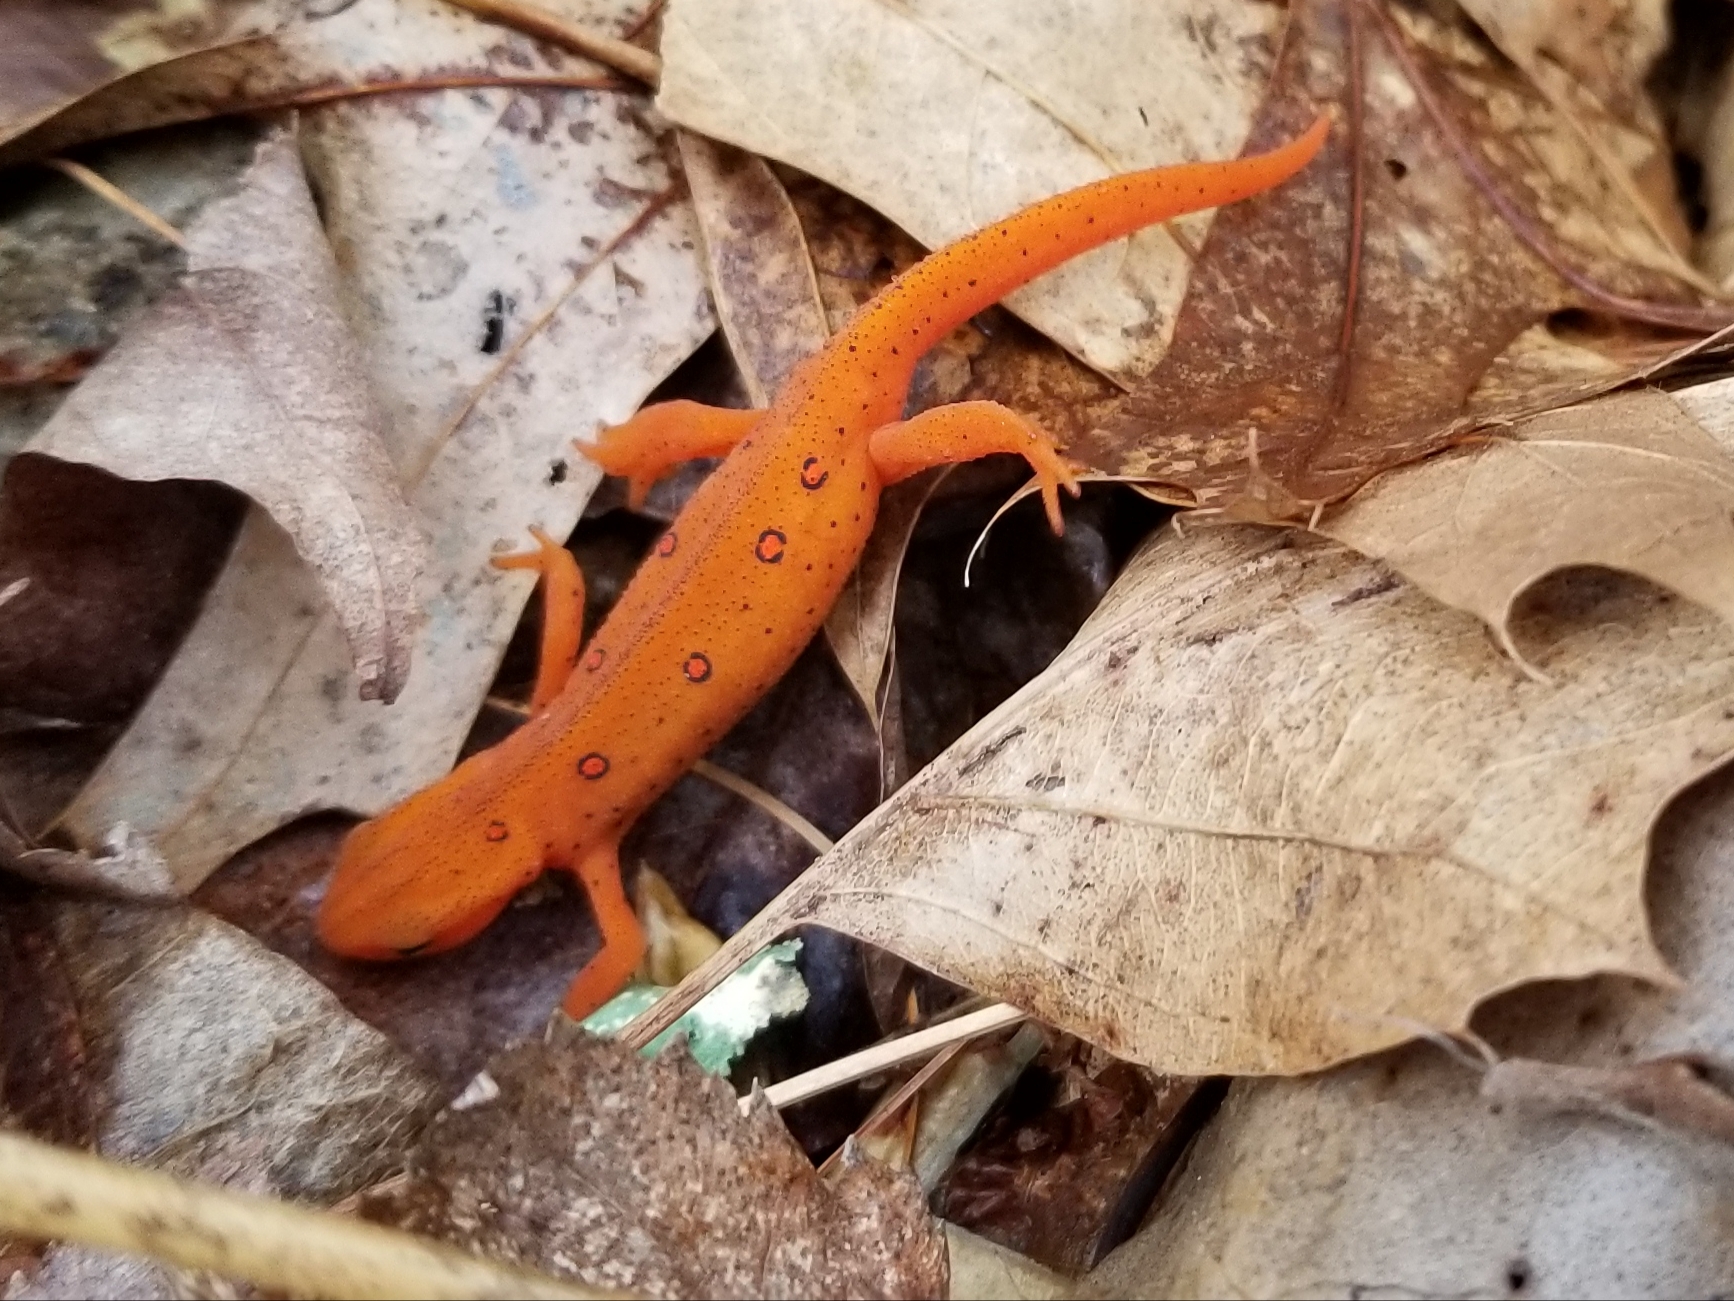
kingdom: Animalia
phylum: Chordata
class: Amphibia
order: Caudata
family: Salamandridae
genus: Notophthalmus
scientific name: Notophthalmus viridescens
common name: Eastern newt
